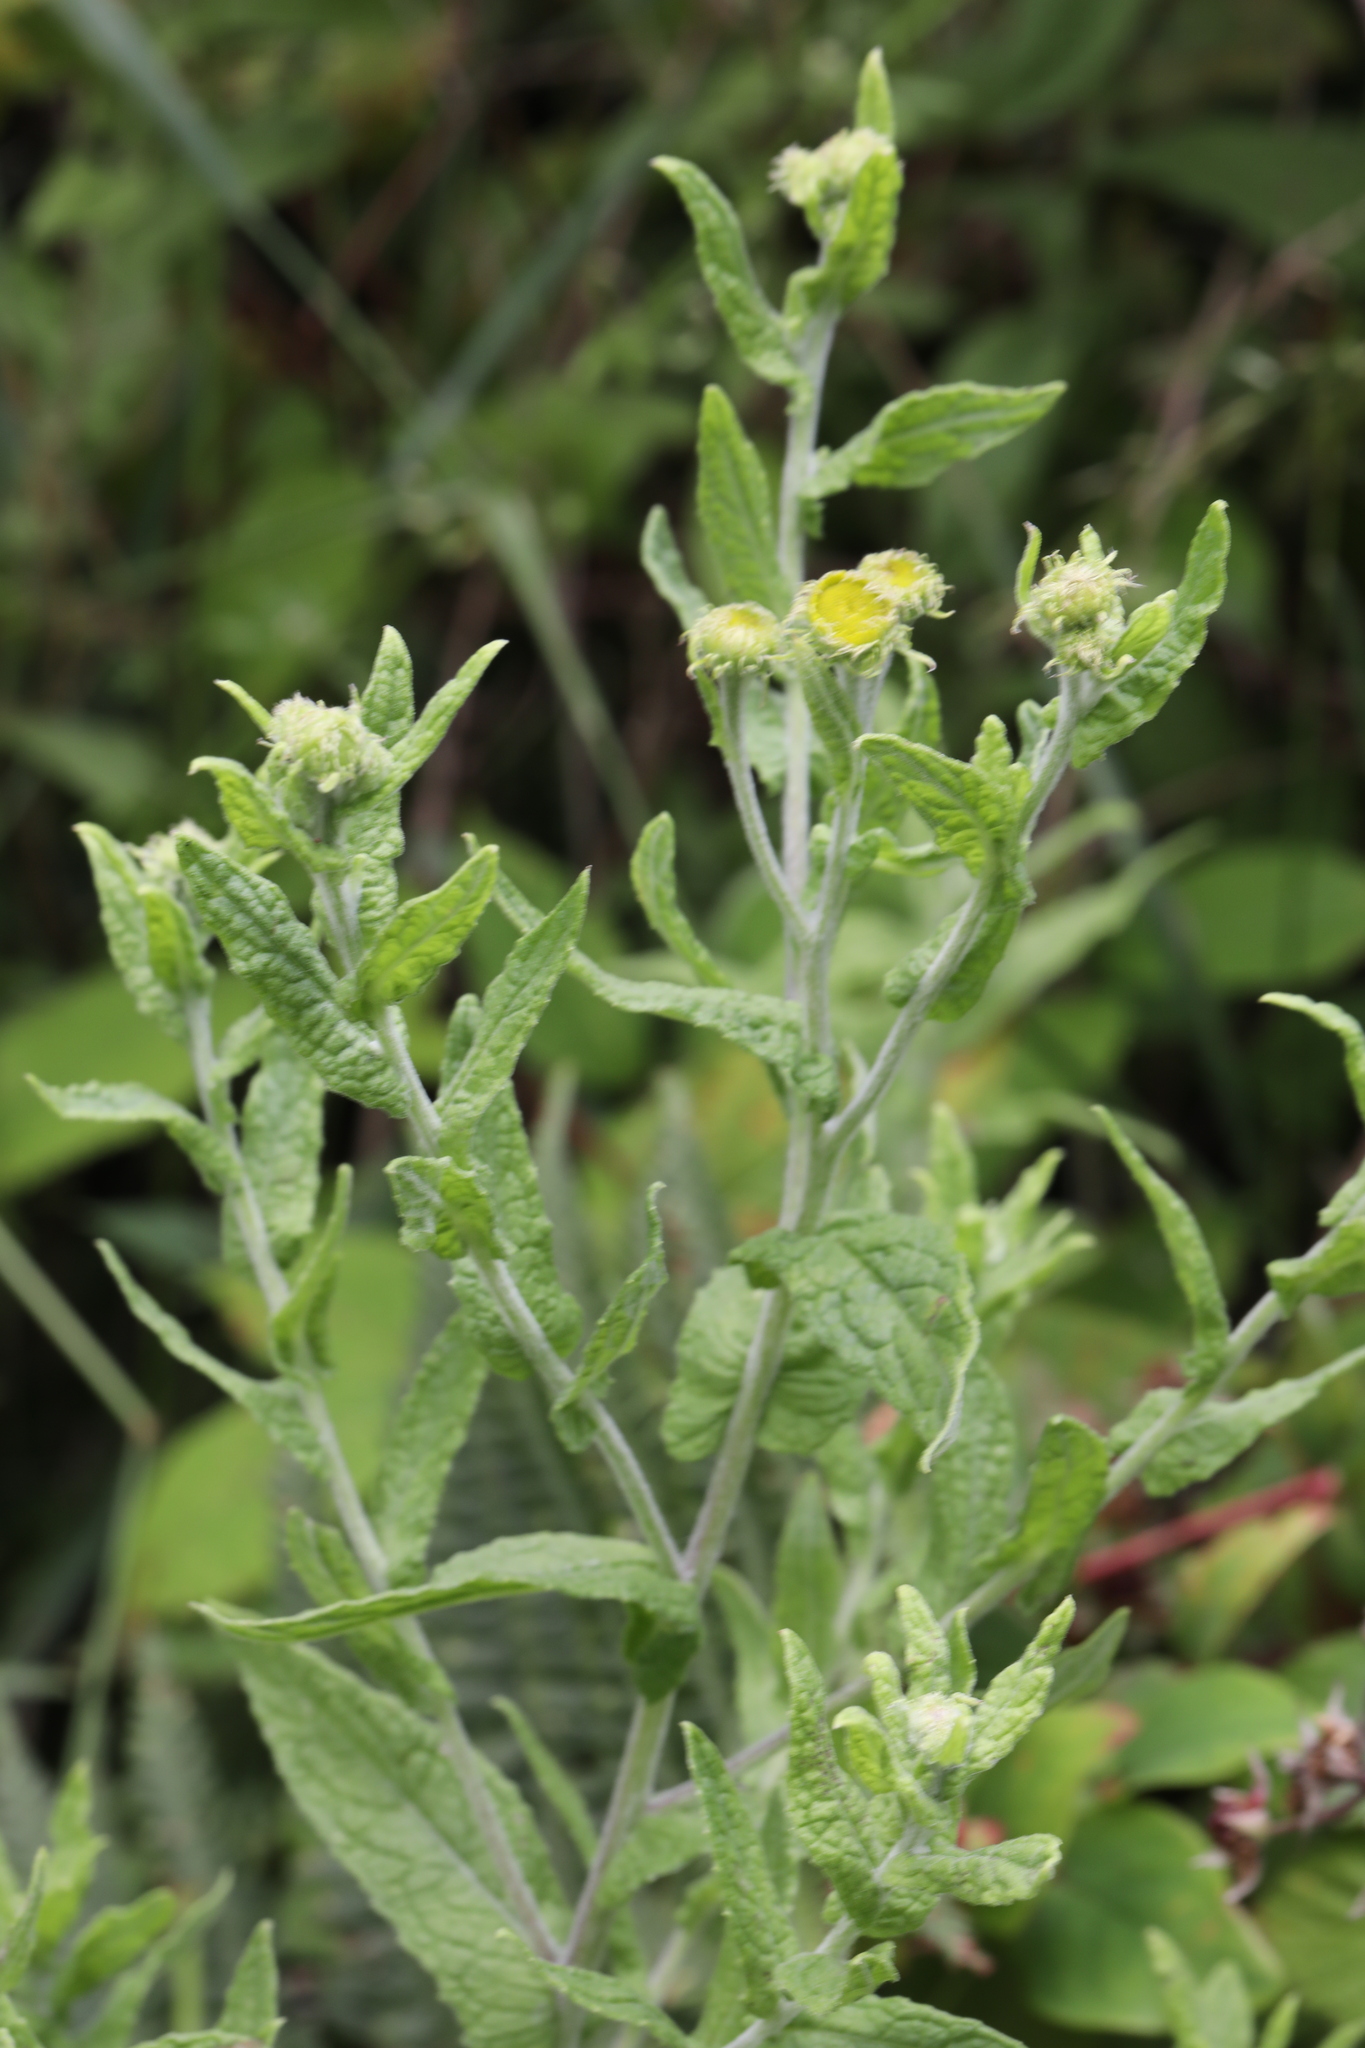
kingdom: Plantae
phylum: Tracheophyta
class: Magnoliopsida
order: Asterales
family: Asteraceae
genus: Pulicaria
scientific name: Pulicaria dysenterica
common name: Common fleabane
